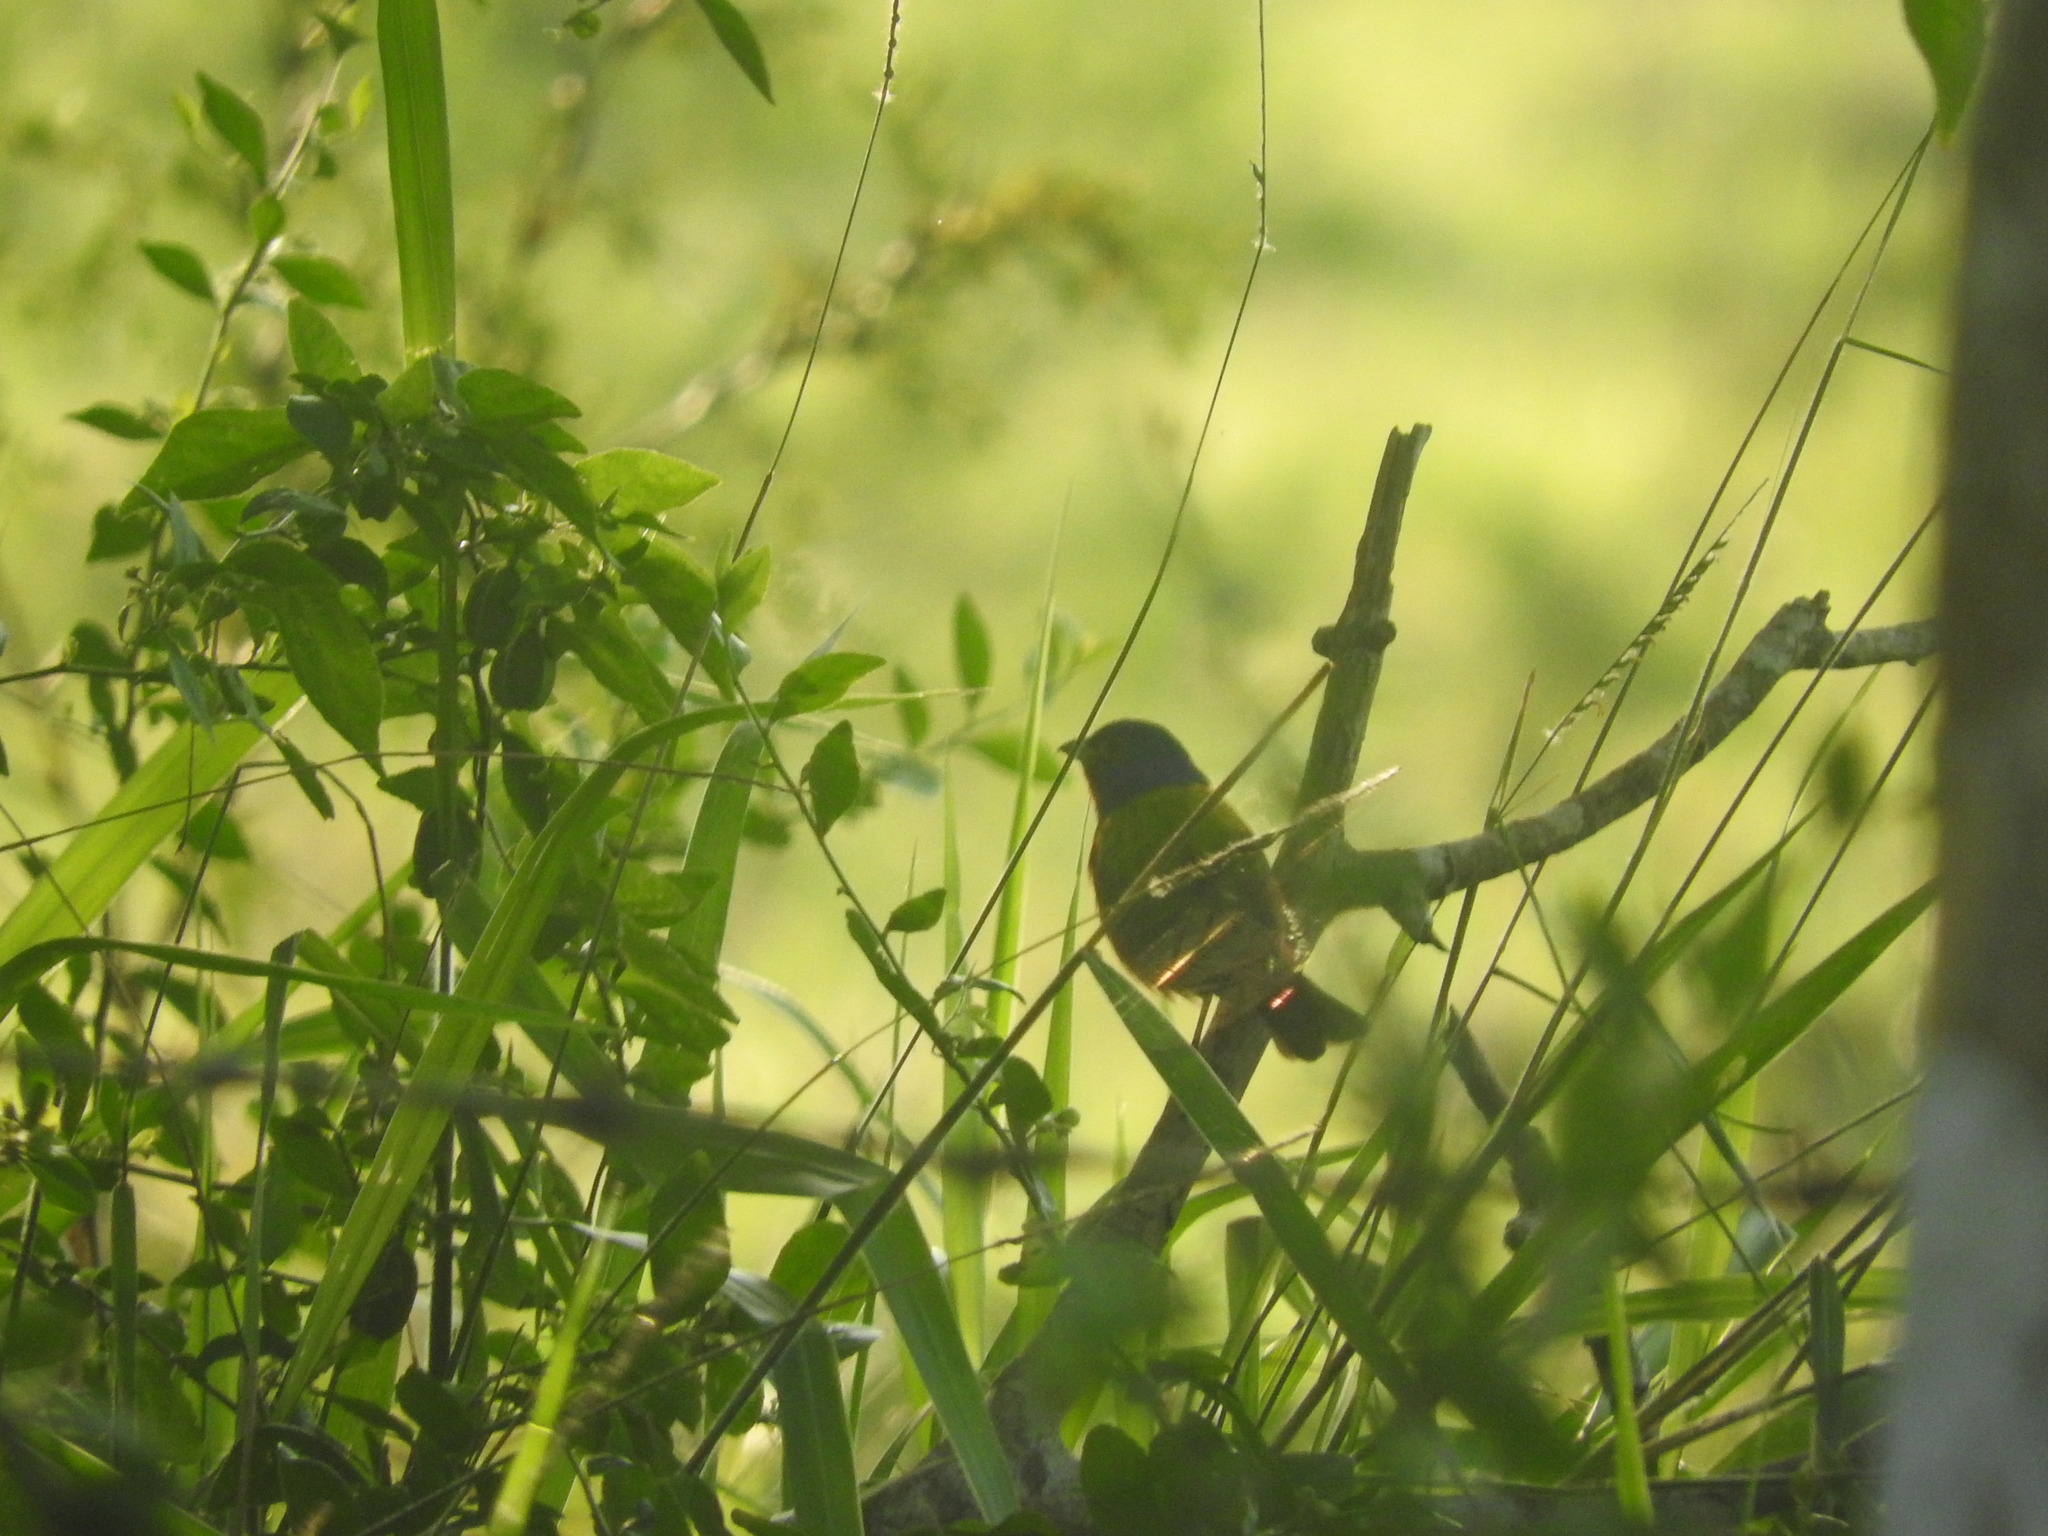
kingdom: Animalia
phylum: Chordata
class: Aves
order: Passeriformes
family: Cardinalidae
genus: Passerina
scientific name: Passerina ciris
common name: Painted bunting
